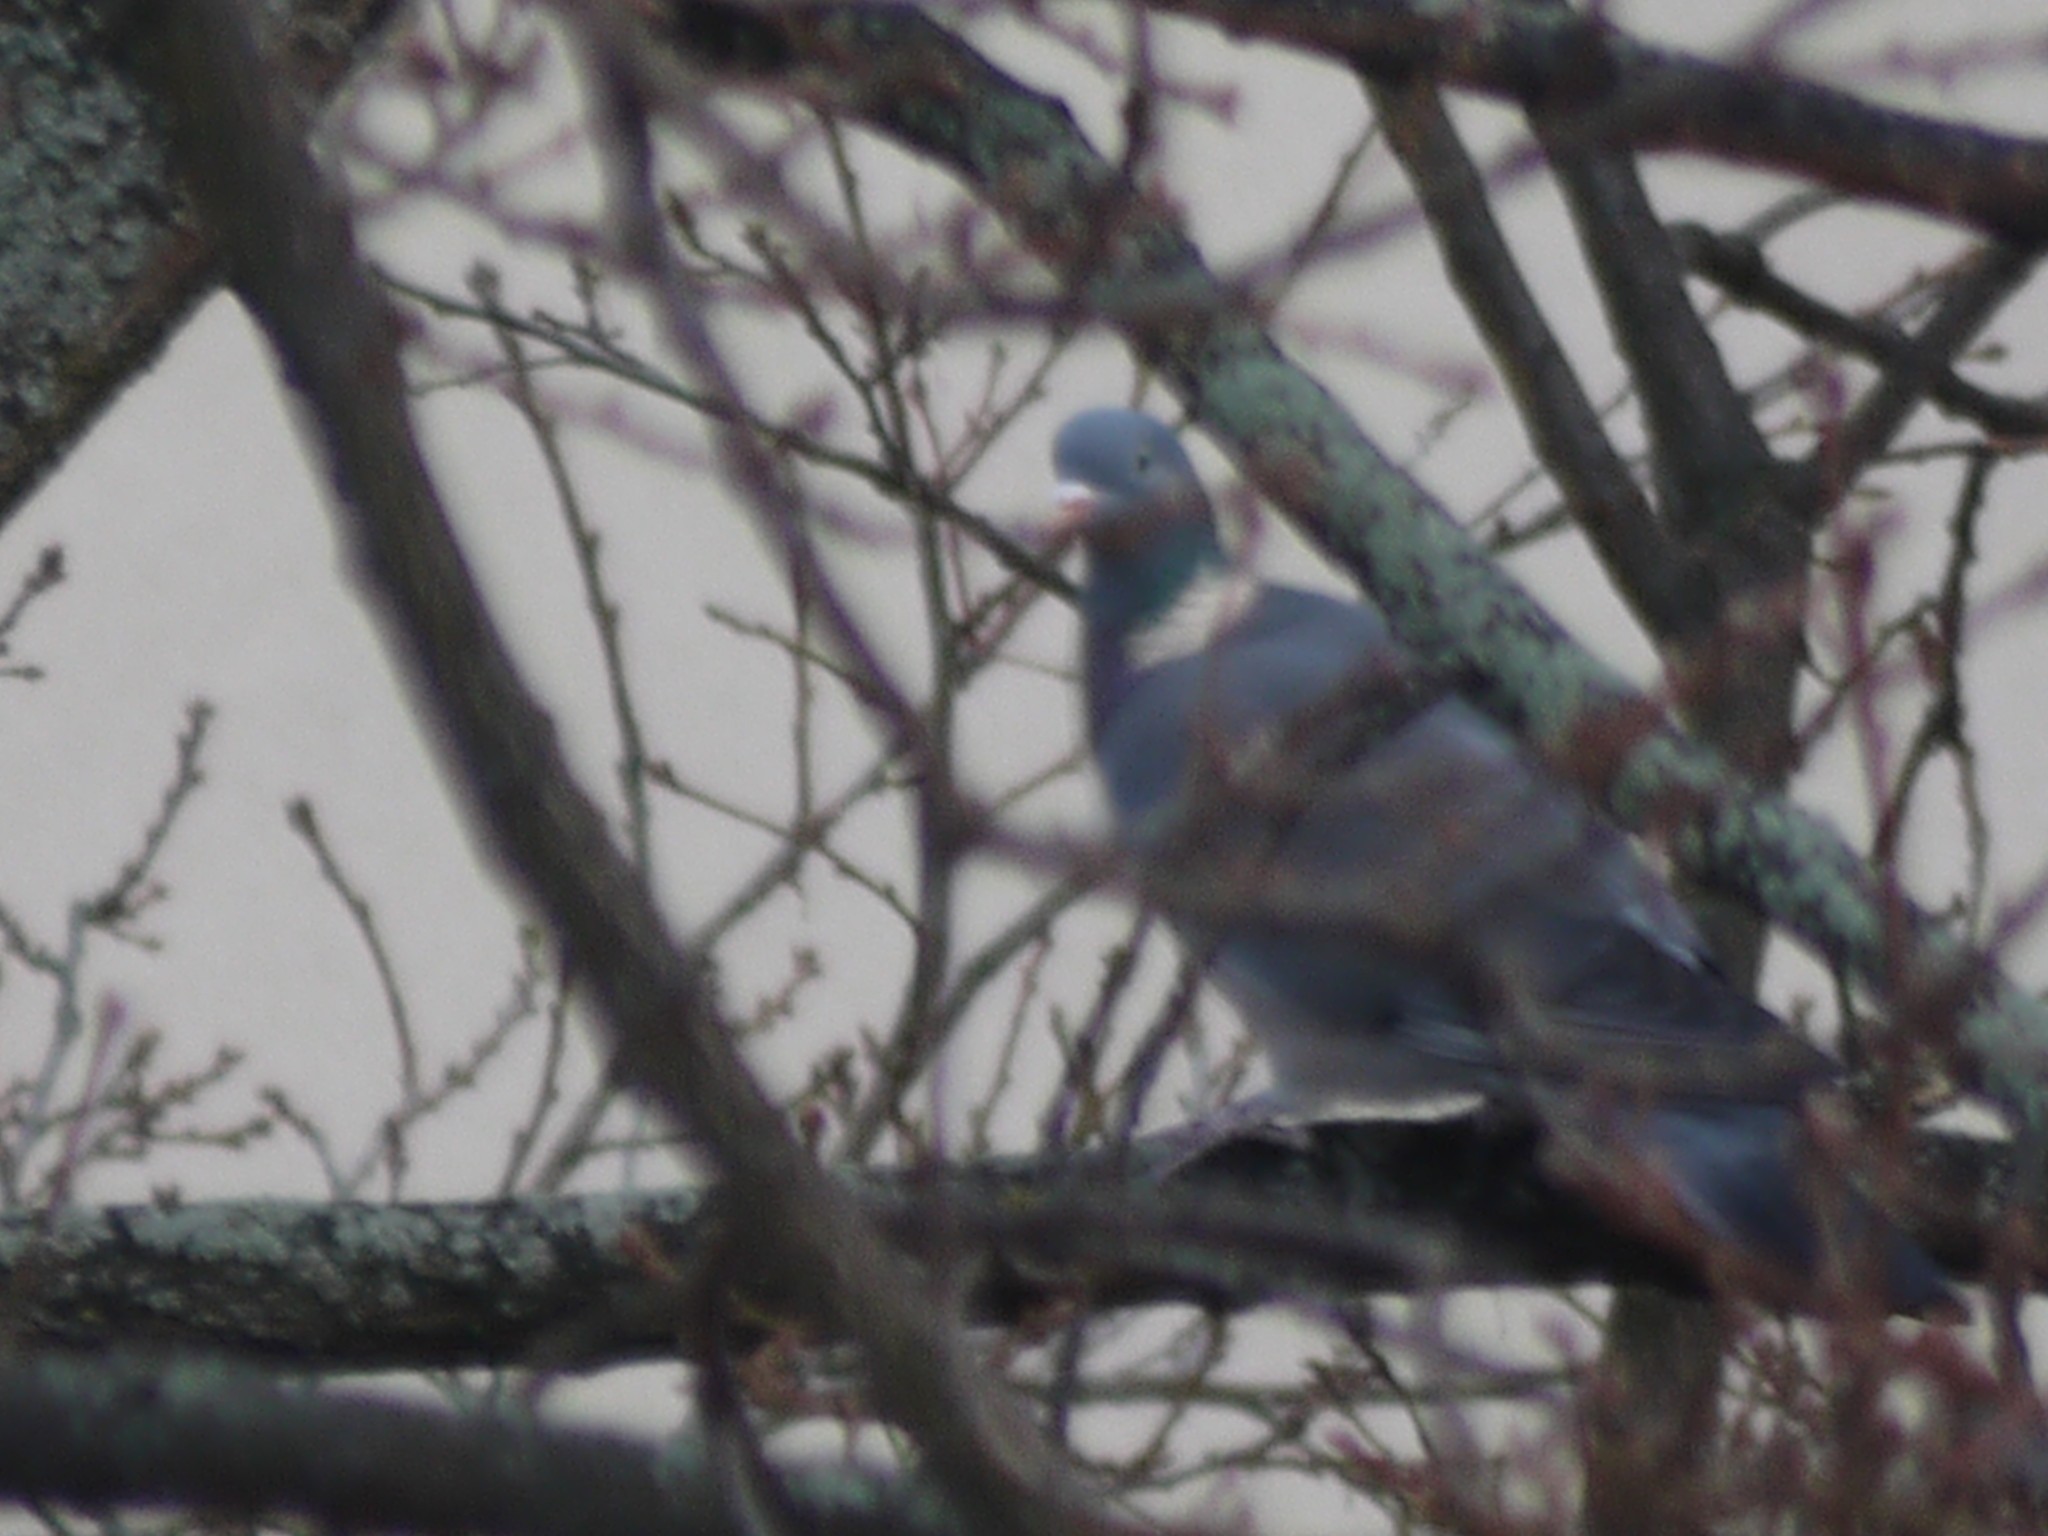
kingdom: Animalia
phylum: Chordata
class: Aves
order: Columbiformes
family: Columbidae
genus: Columba
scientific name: Columba palumbus
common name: Common wood pigeon
